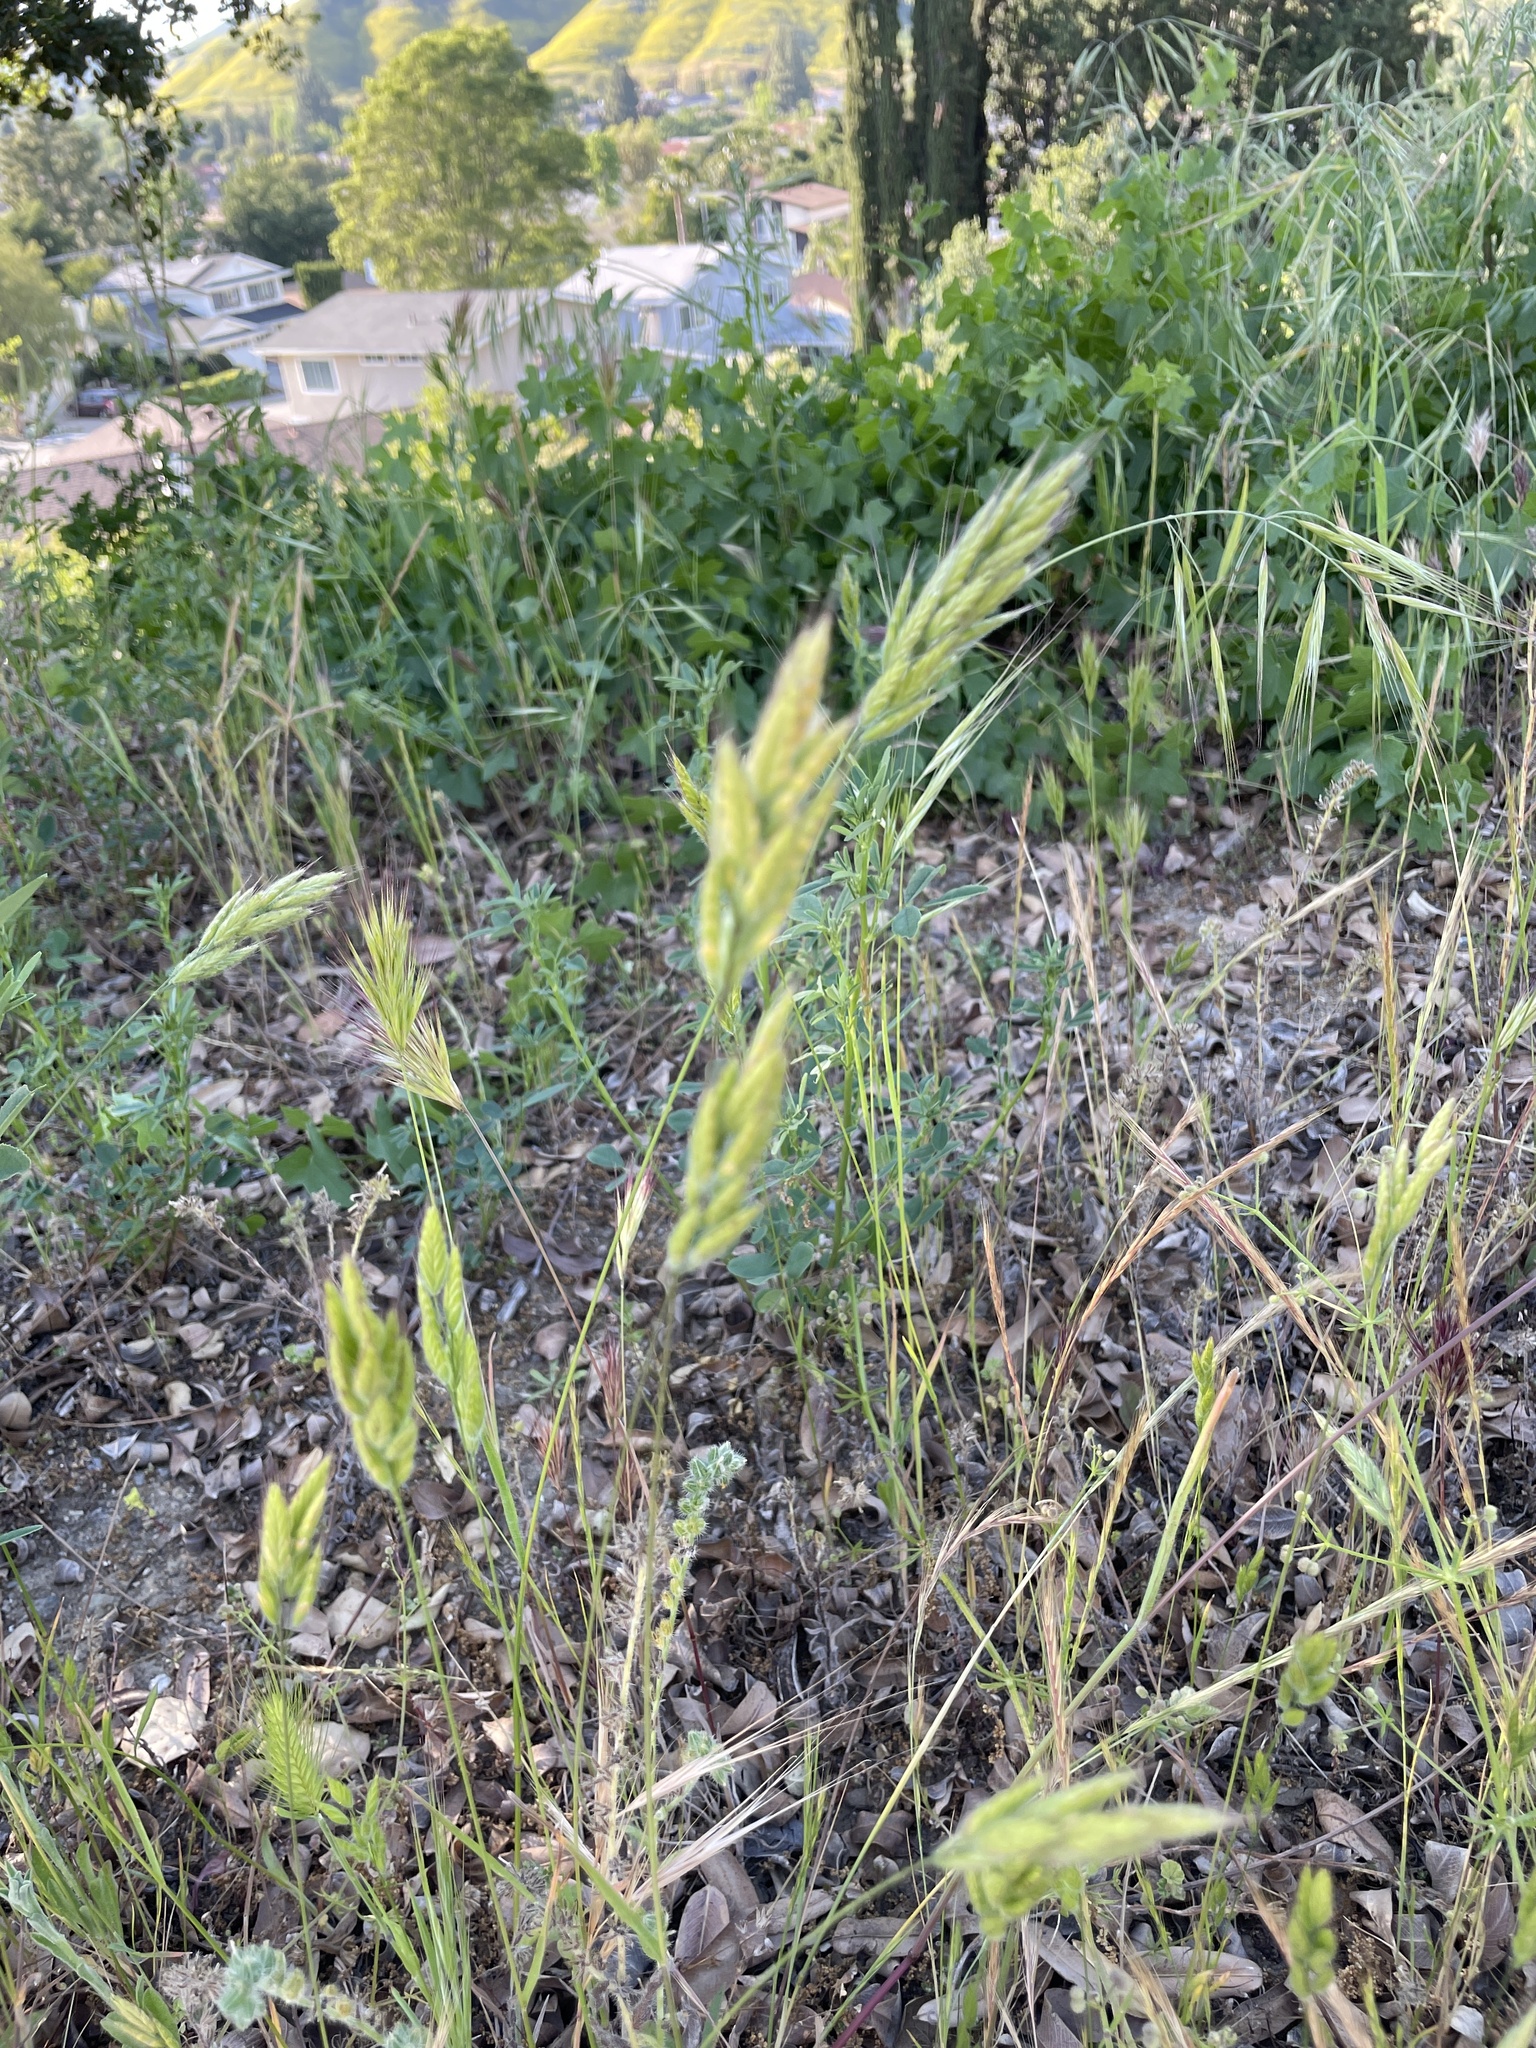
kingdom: Plantae
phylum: Tracheophyta
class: Liliopsida
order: Poales
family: Poaceae
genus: Bromus
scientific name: Bromus hordeaceus
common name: Soft brome
